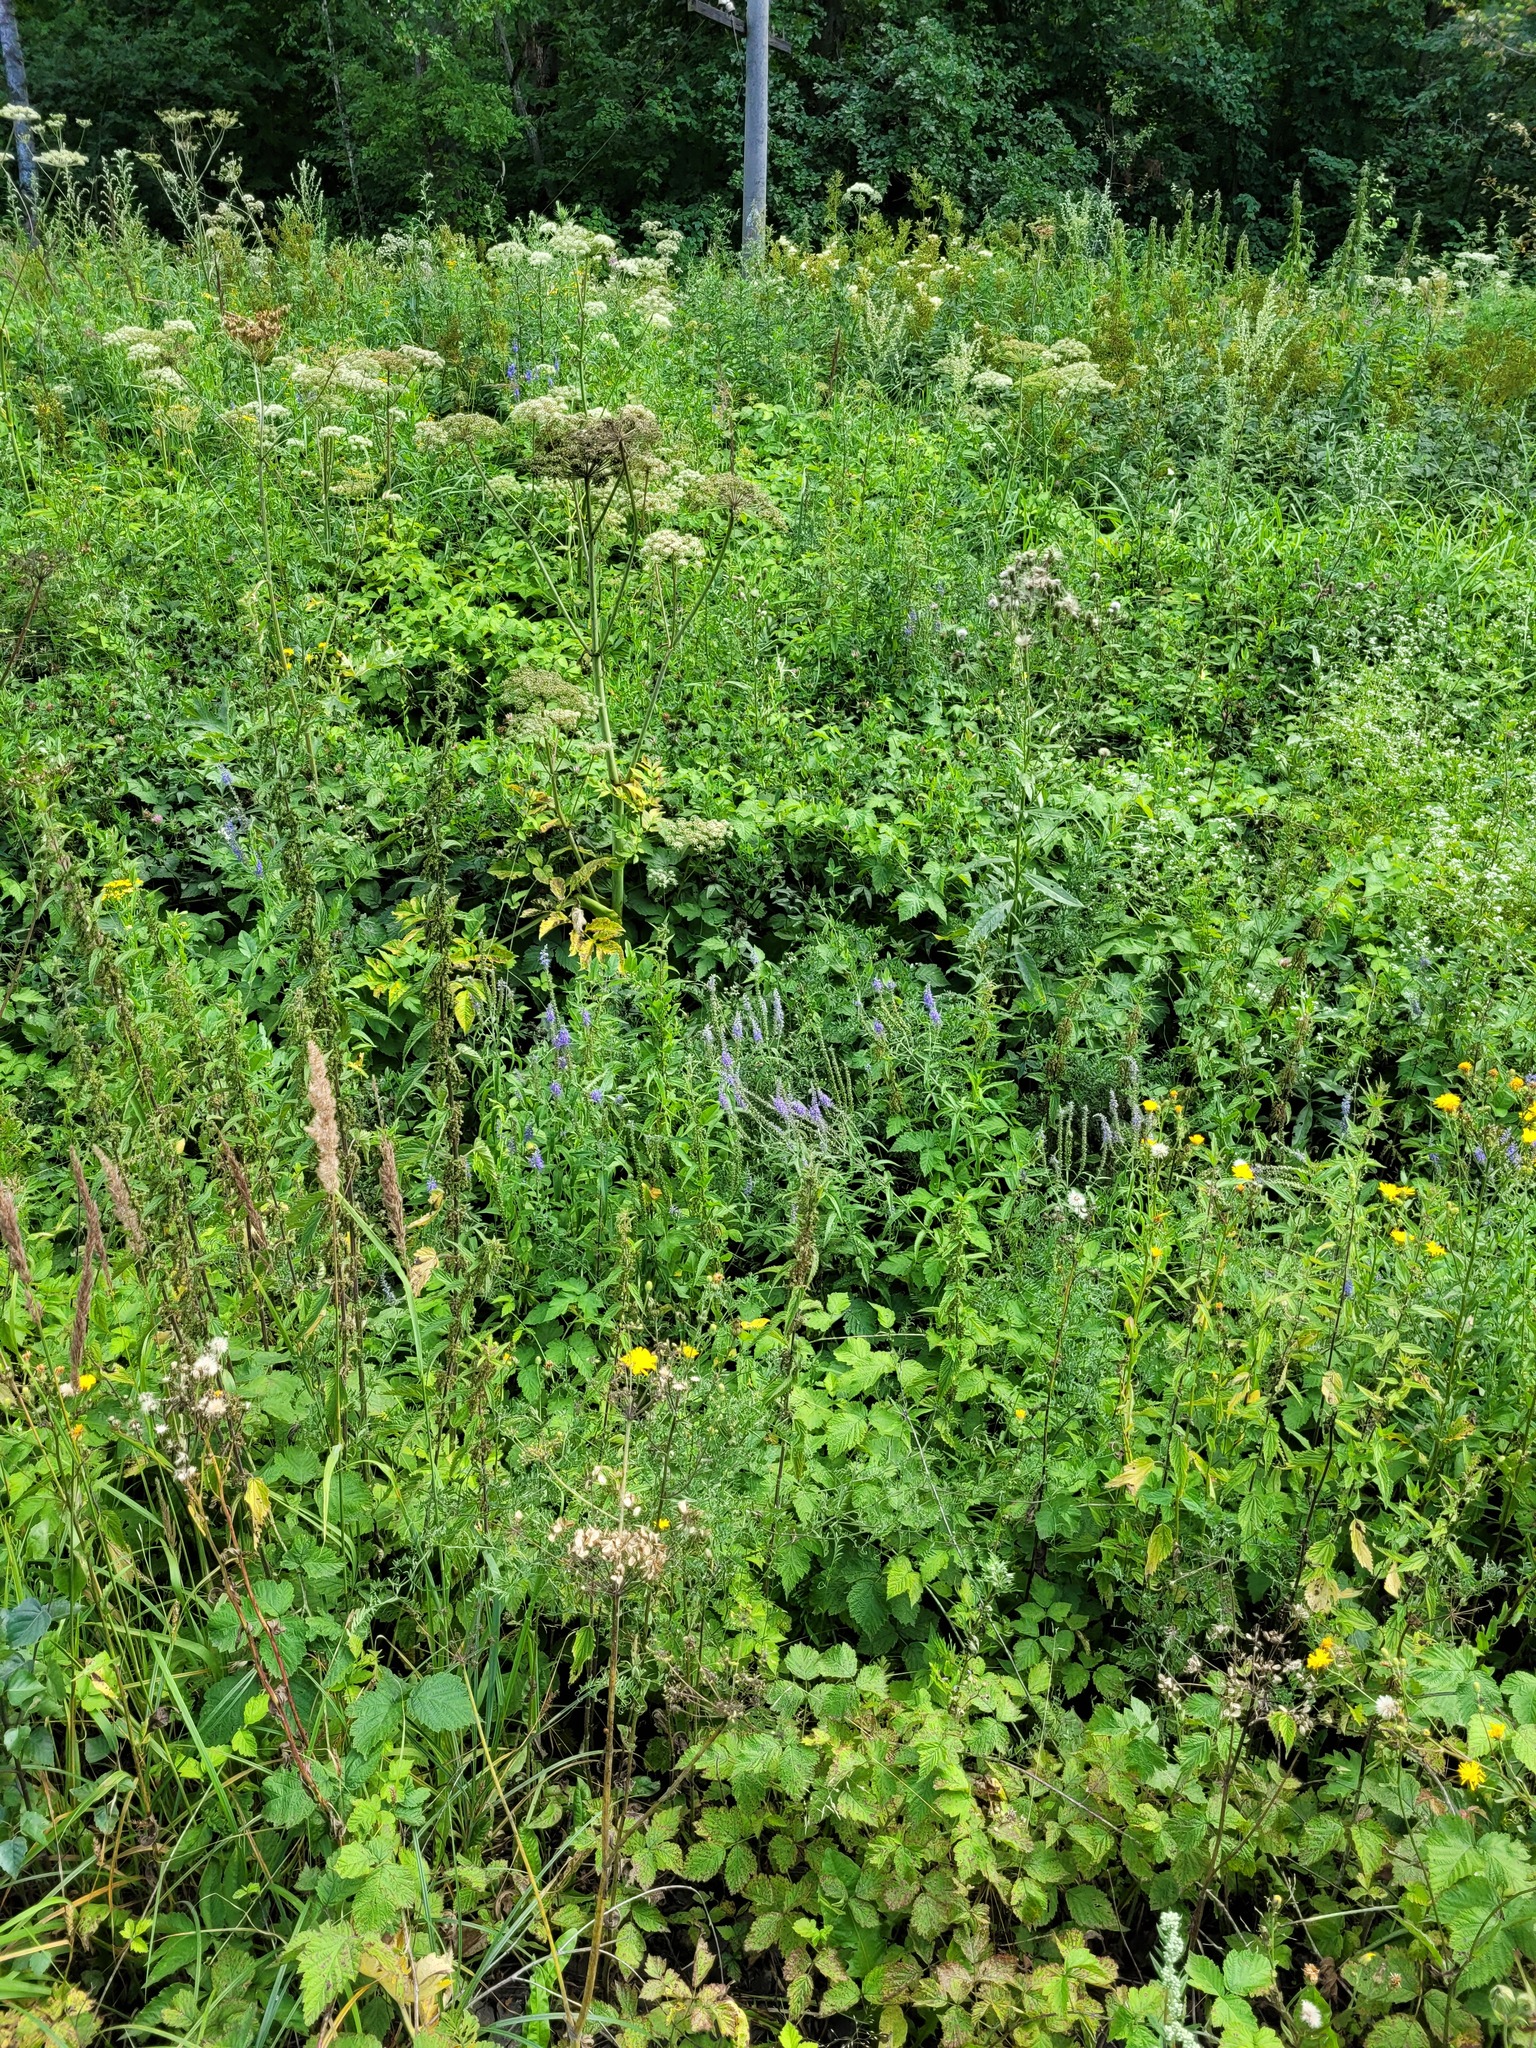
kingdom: Plantae
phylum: Tracheophyta
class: Magnoliopsida
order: Lamiales
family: Plantaginaceae
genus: Veronica
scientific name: Veronica longifolia
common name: Garden speedwell
